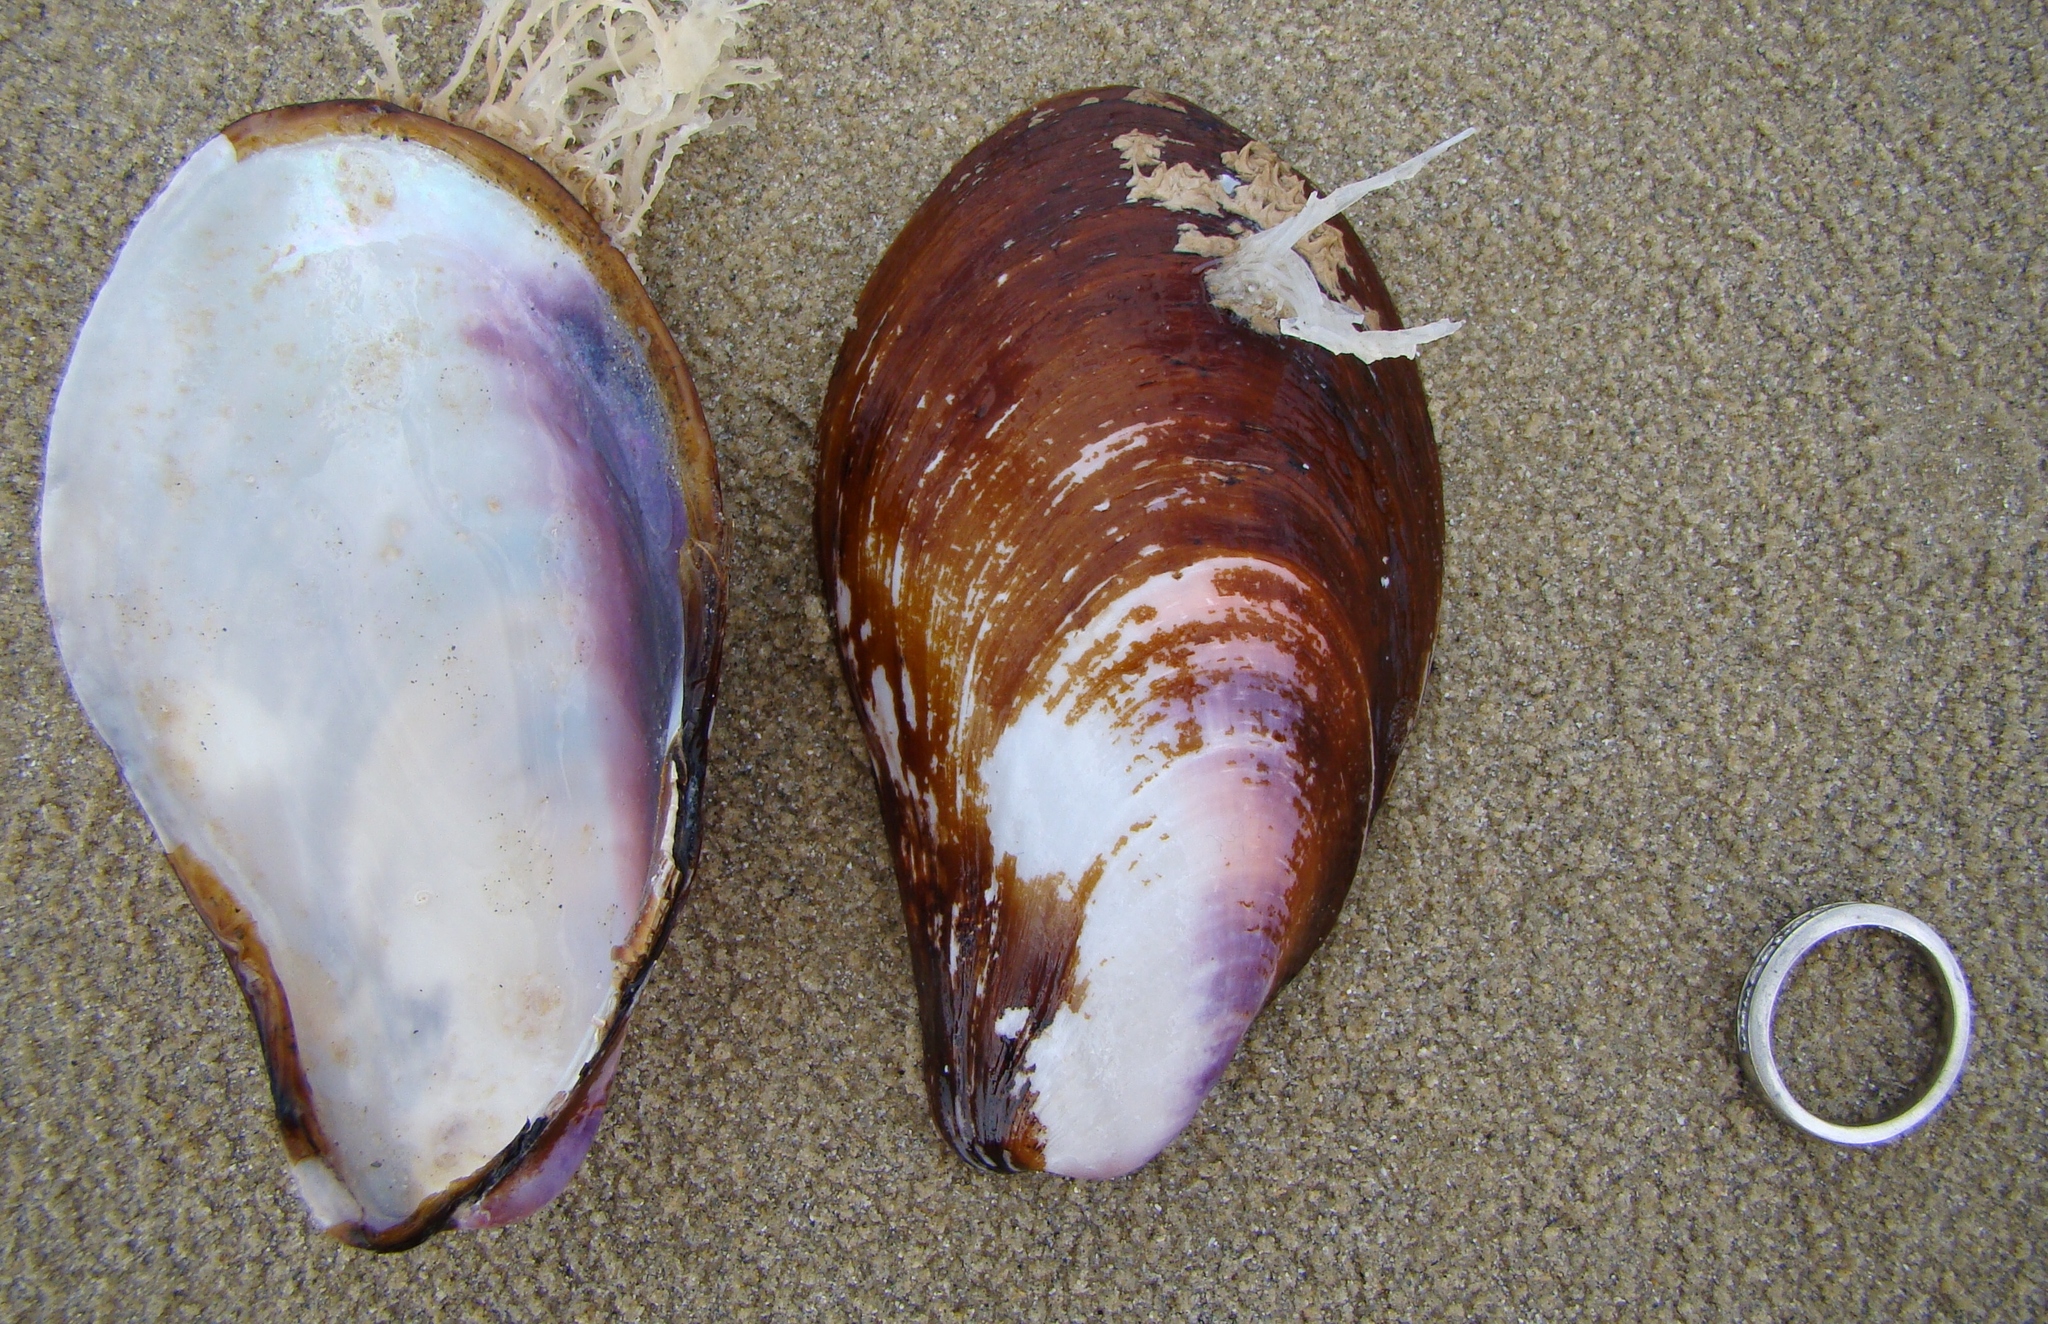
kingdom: Animalia
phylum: Mollusca
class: Bivalvia
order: Mytilida
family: Mytilidae
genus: Modiolus
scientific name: Modiolus areolatus
